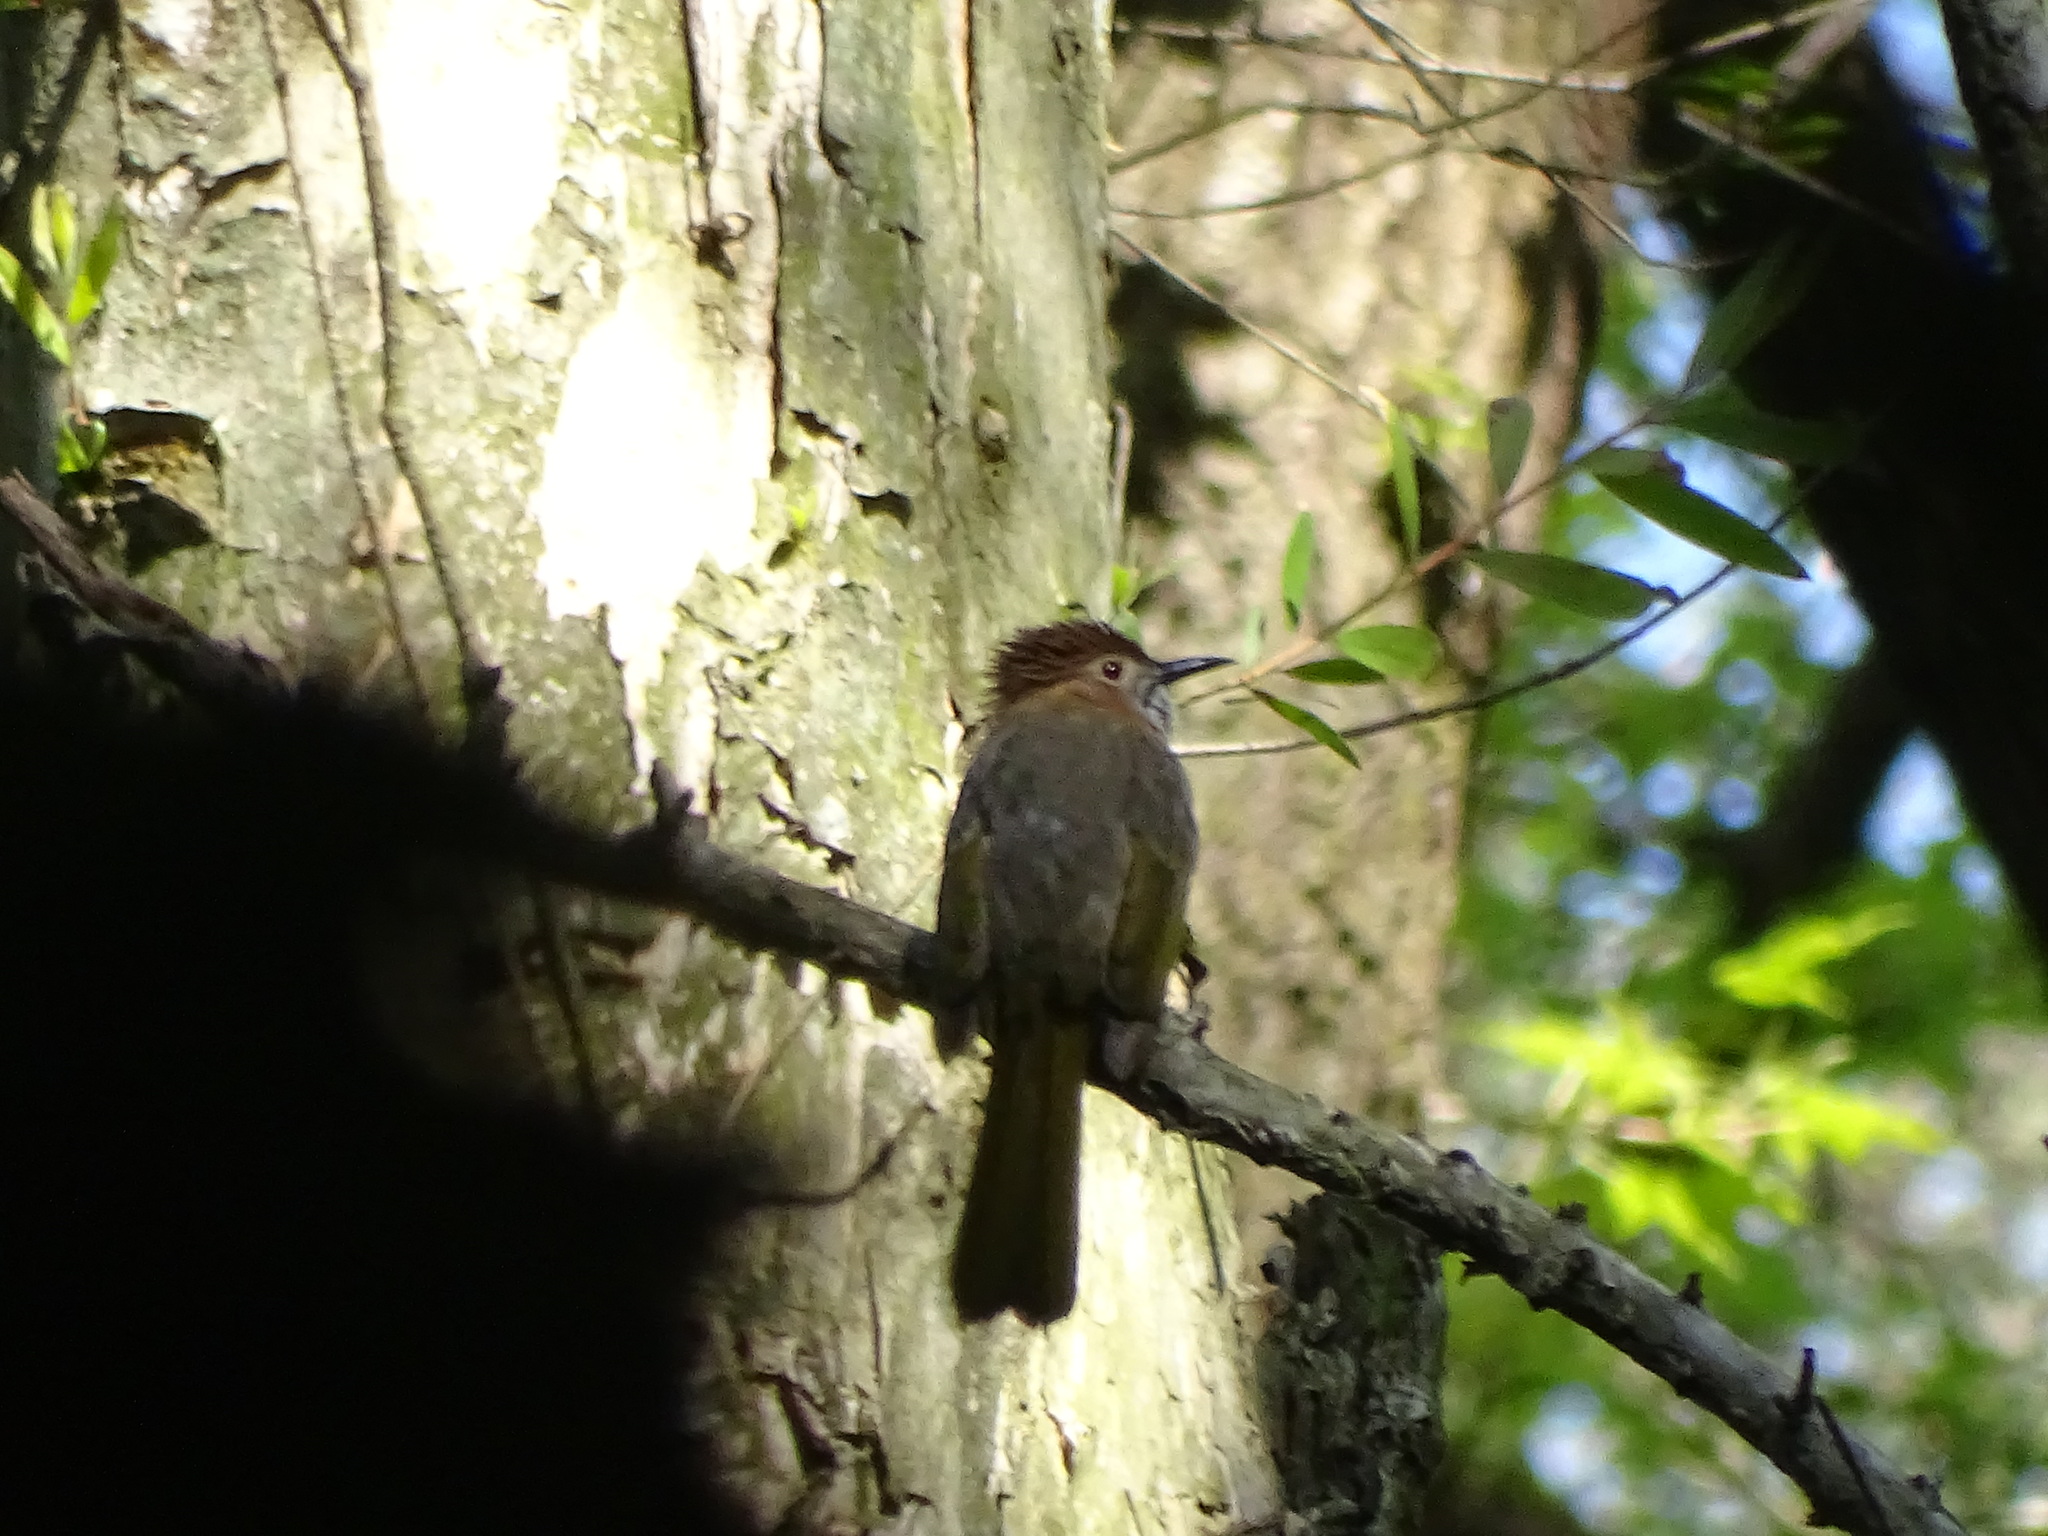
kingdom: Animalia
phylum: Chordata
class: Aves
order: Passeriformes
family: Pycnonotidae
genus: Ixos
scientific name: Ixos mcclellandii
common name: Mountain bulbul
